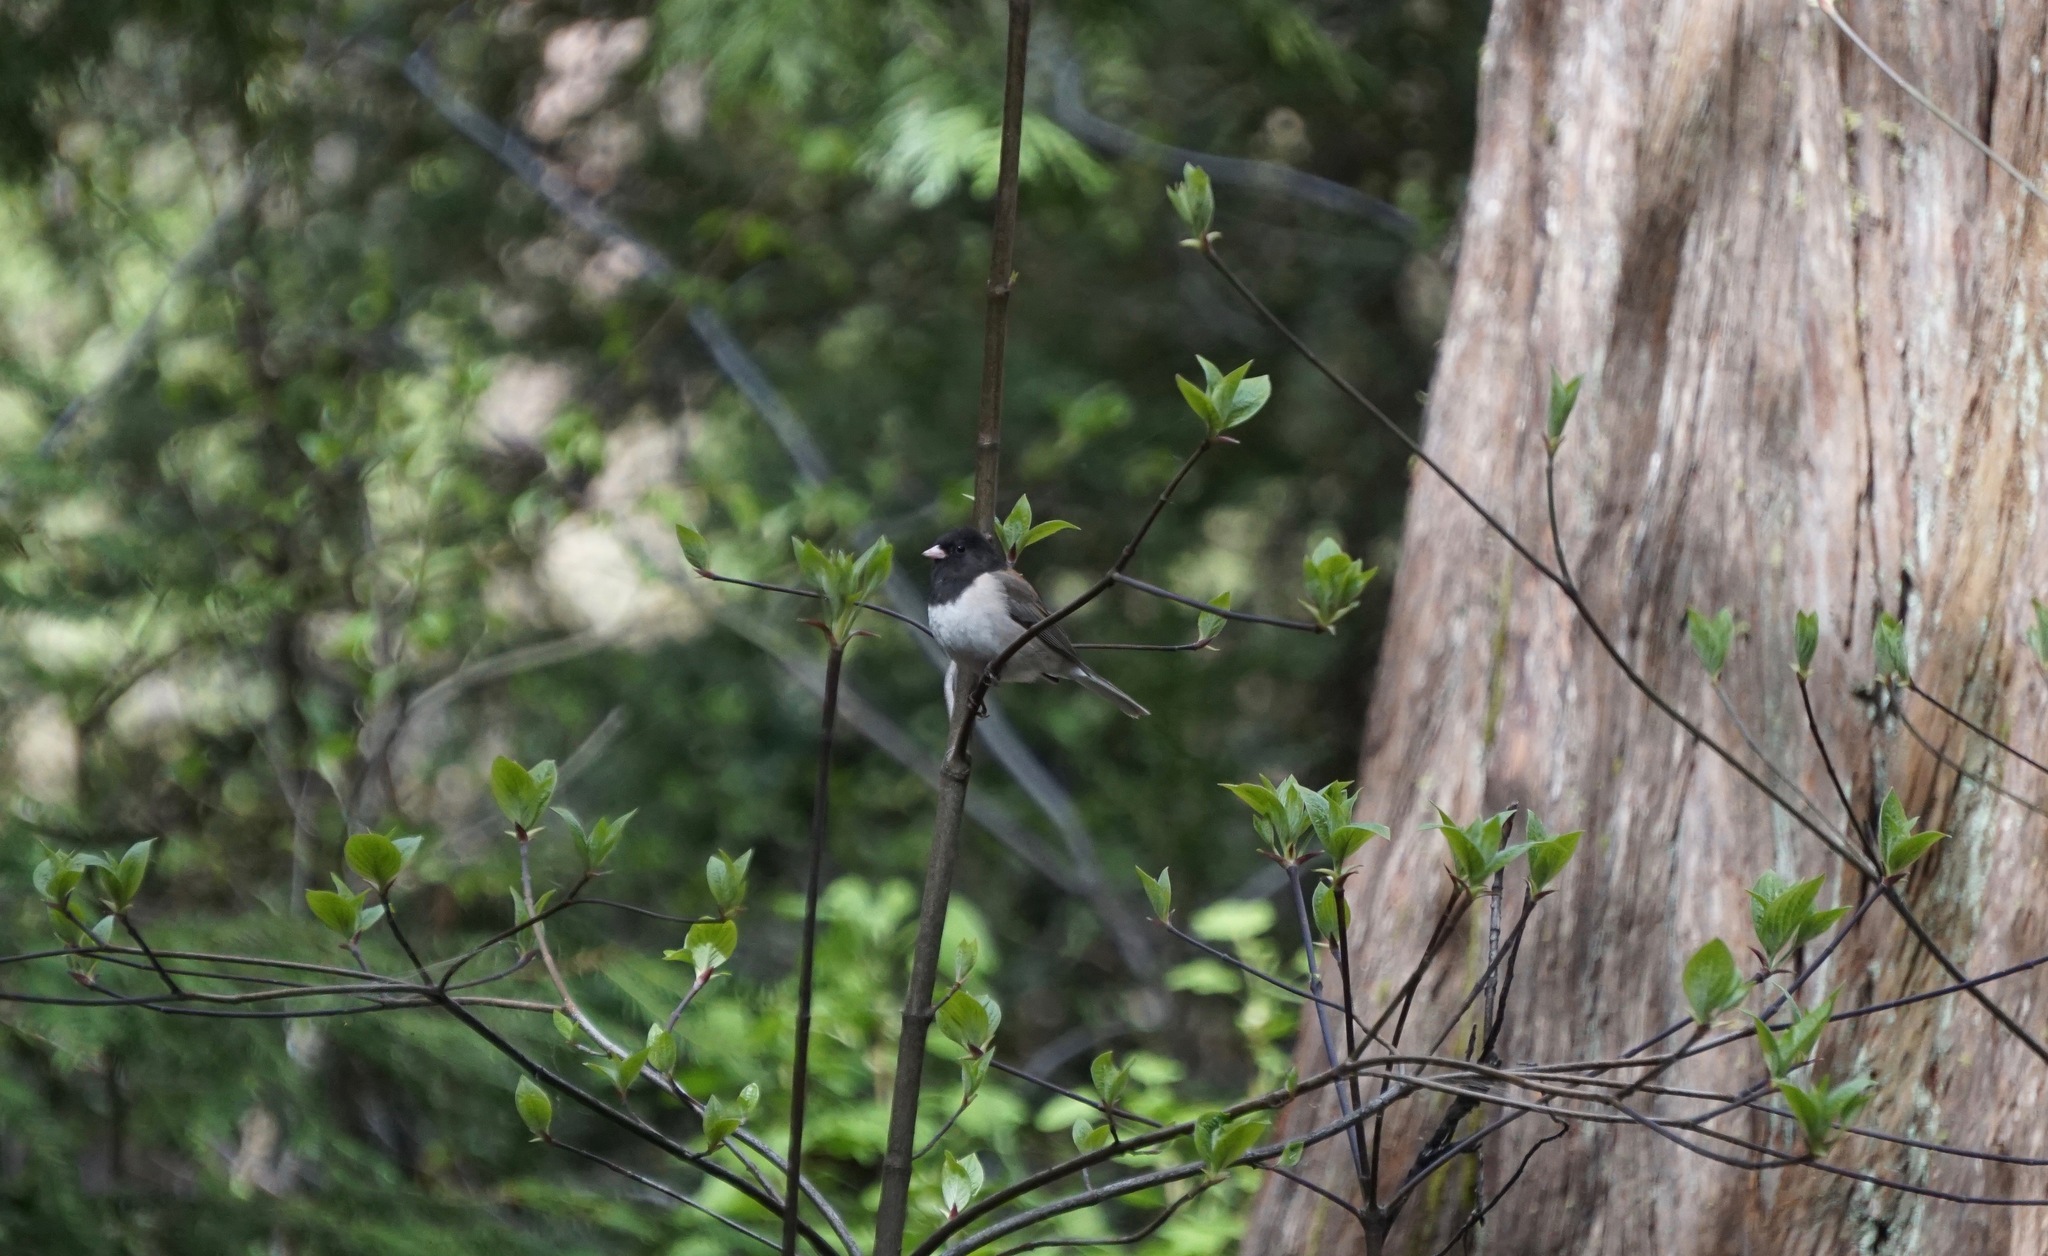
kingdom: Animalia
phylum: Chordata
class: Aves
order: Passeriformes
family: Passerellidae
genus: Junco
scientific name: Junco hyemalis
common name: Dark-eyed junco
